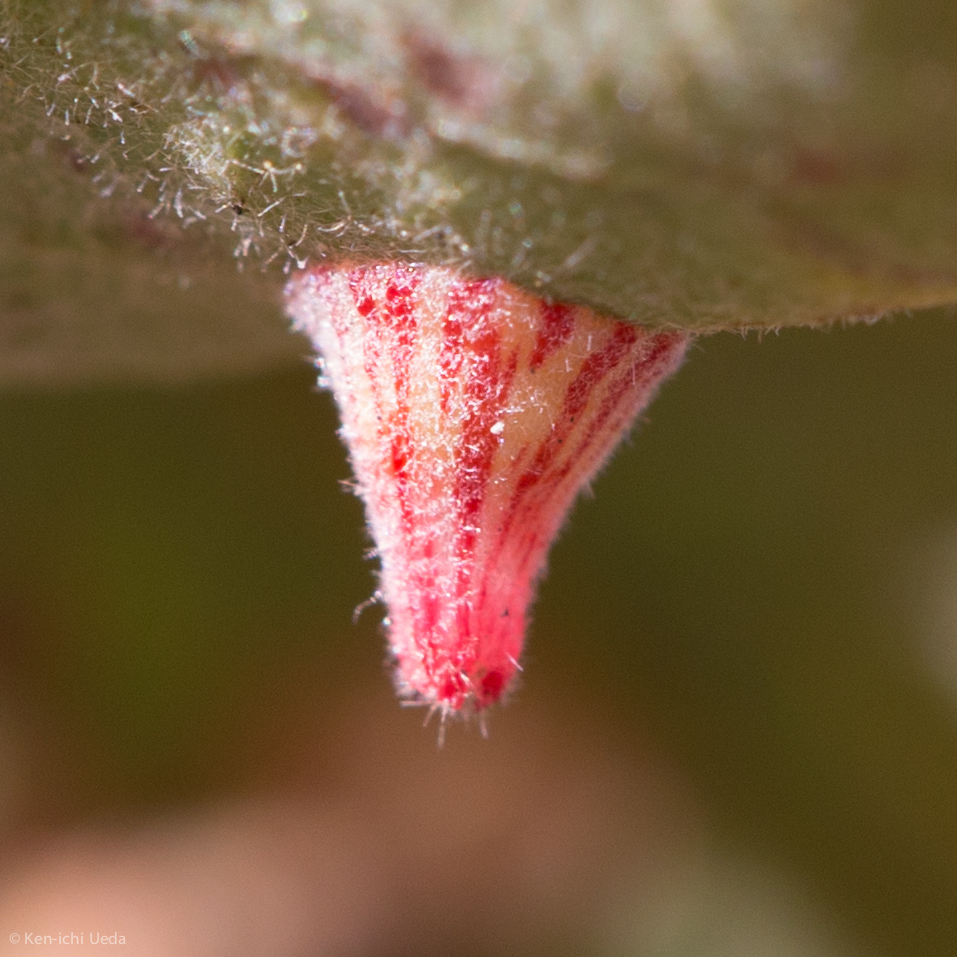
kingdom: Animalia
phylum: Arthropoda
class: Insecta
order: Hymenoptera
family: Cynipidae
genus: Andricus
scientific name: Andricus
